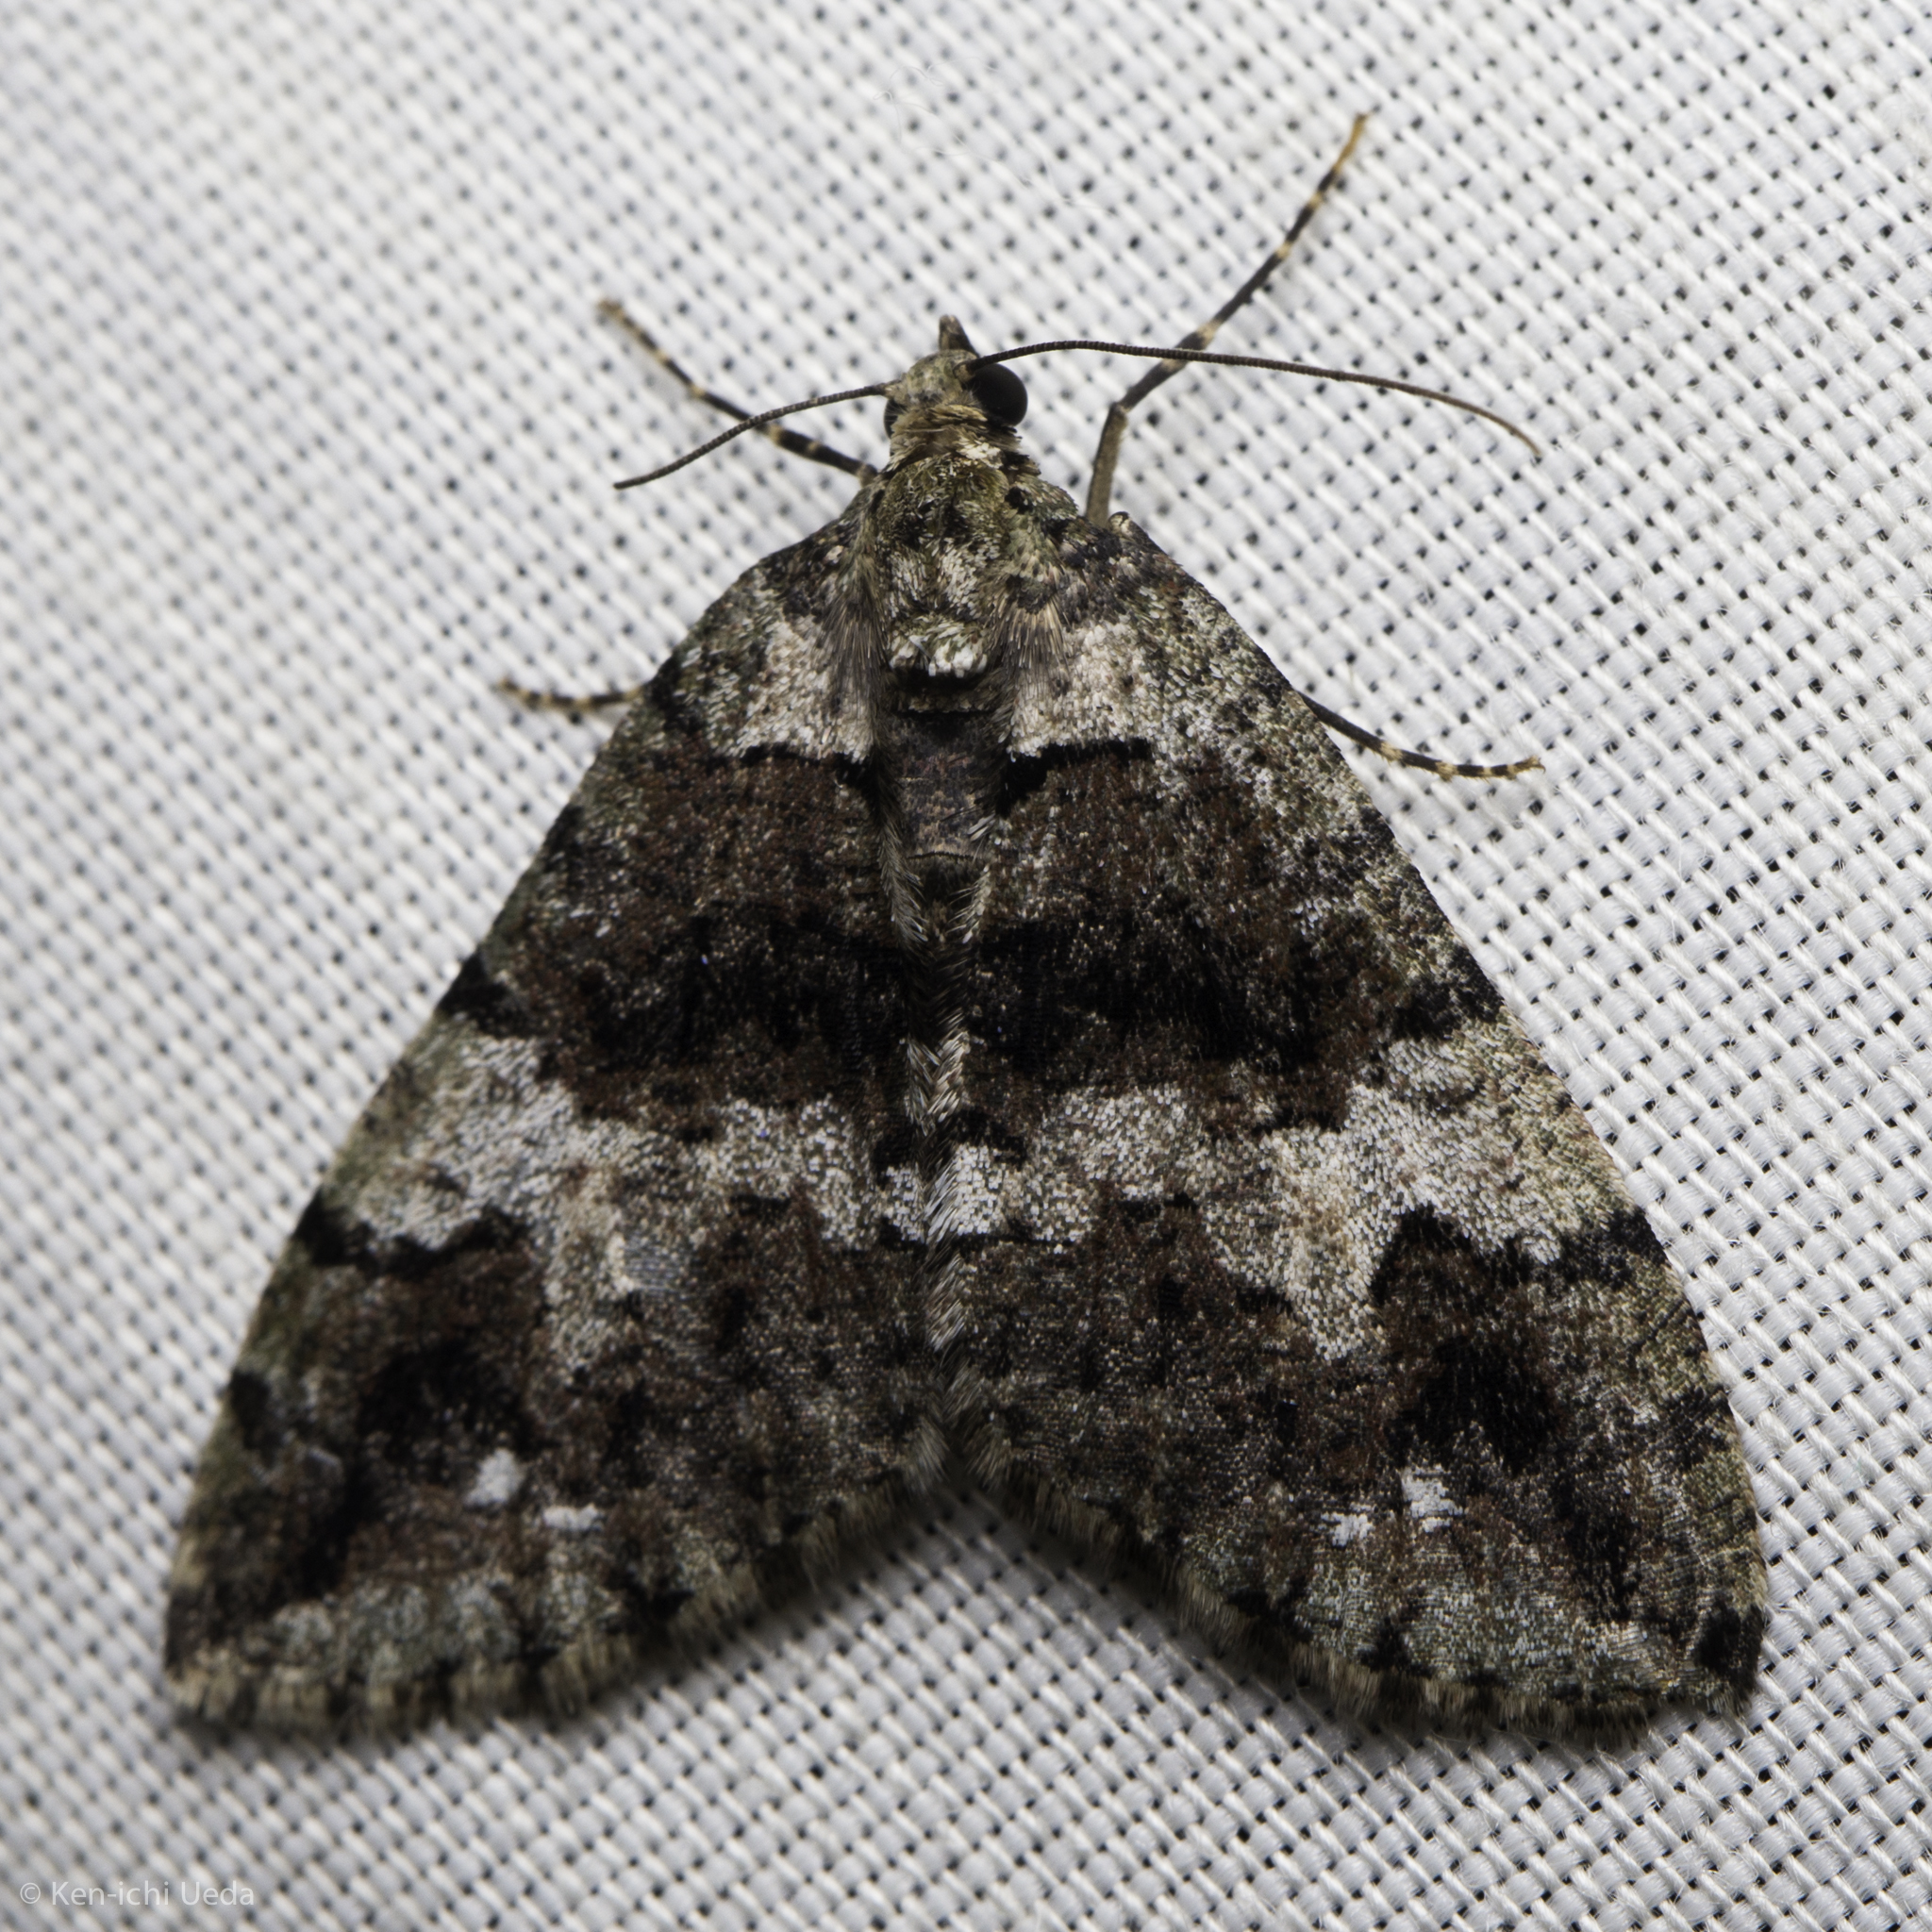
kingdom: Animalia
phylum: Arthropoda
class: Insecta
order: Lepidoptera
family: Geometridae
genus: Hydriomena
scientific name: Hydriomena albifasciata
